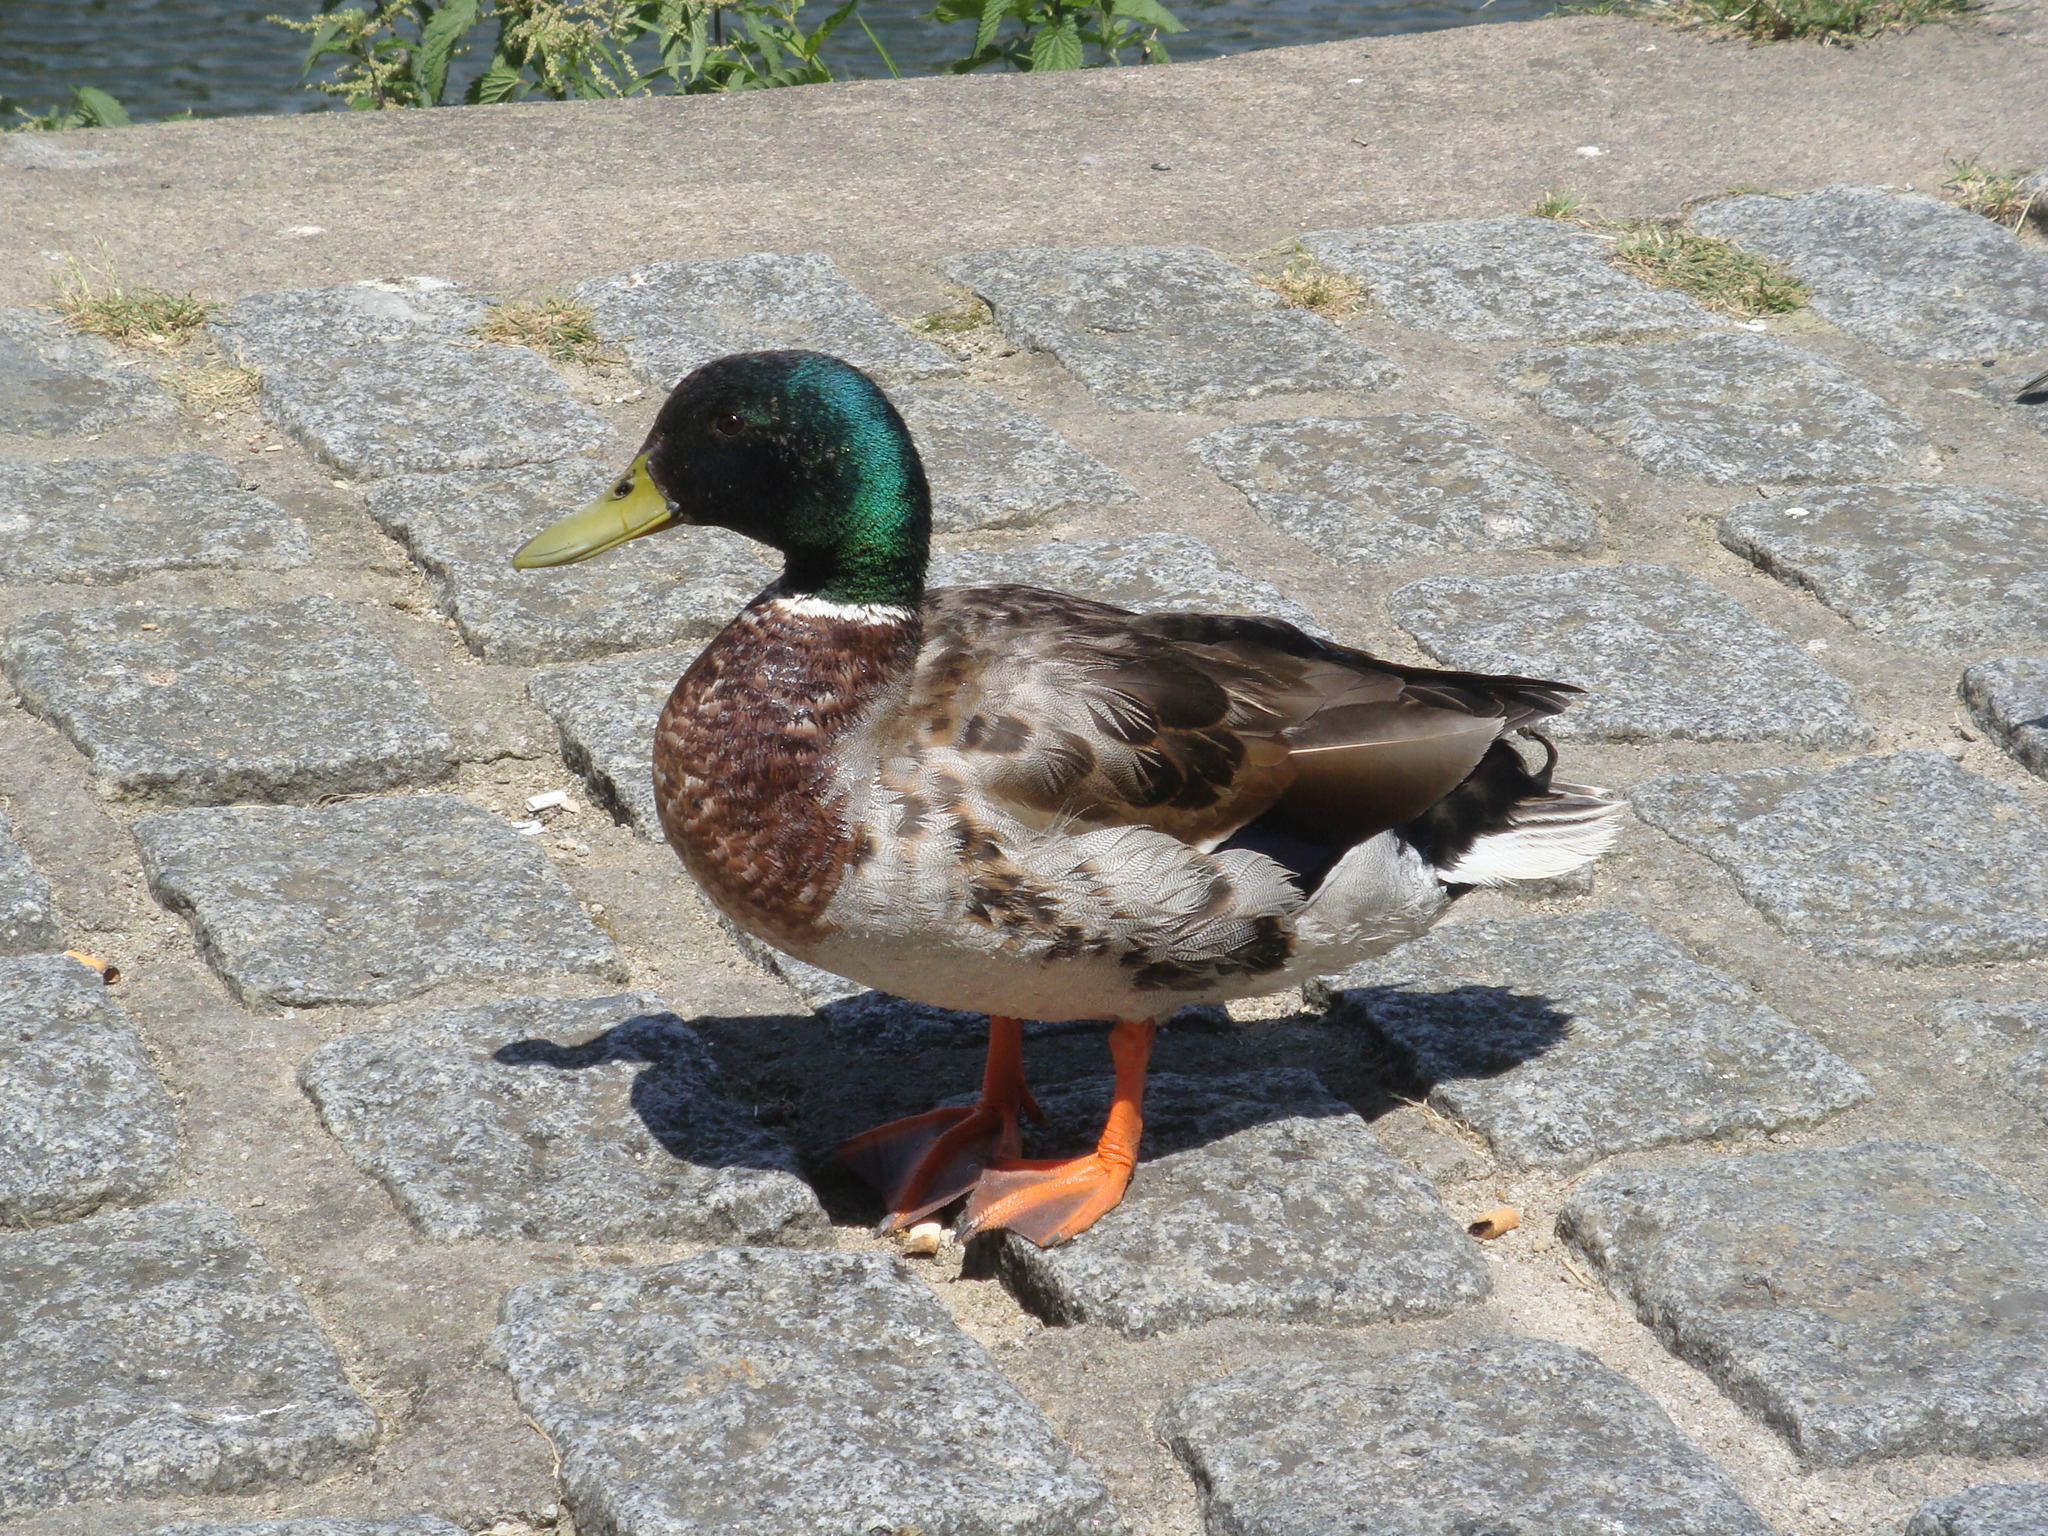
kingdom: Animalia
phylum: Chordata
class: Aves
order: Anseriformes
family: Anatidae
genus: Anas
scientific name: Anas platyrhynchos
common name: Mallard
